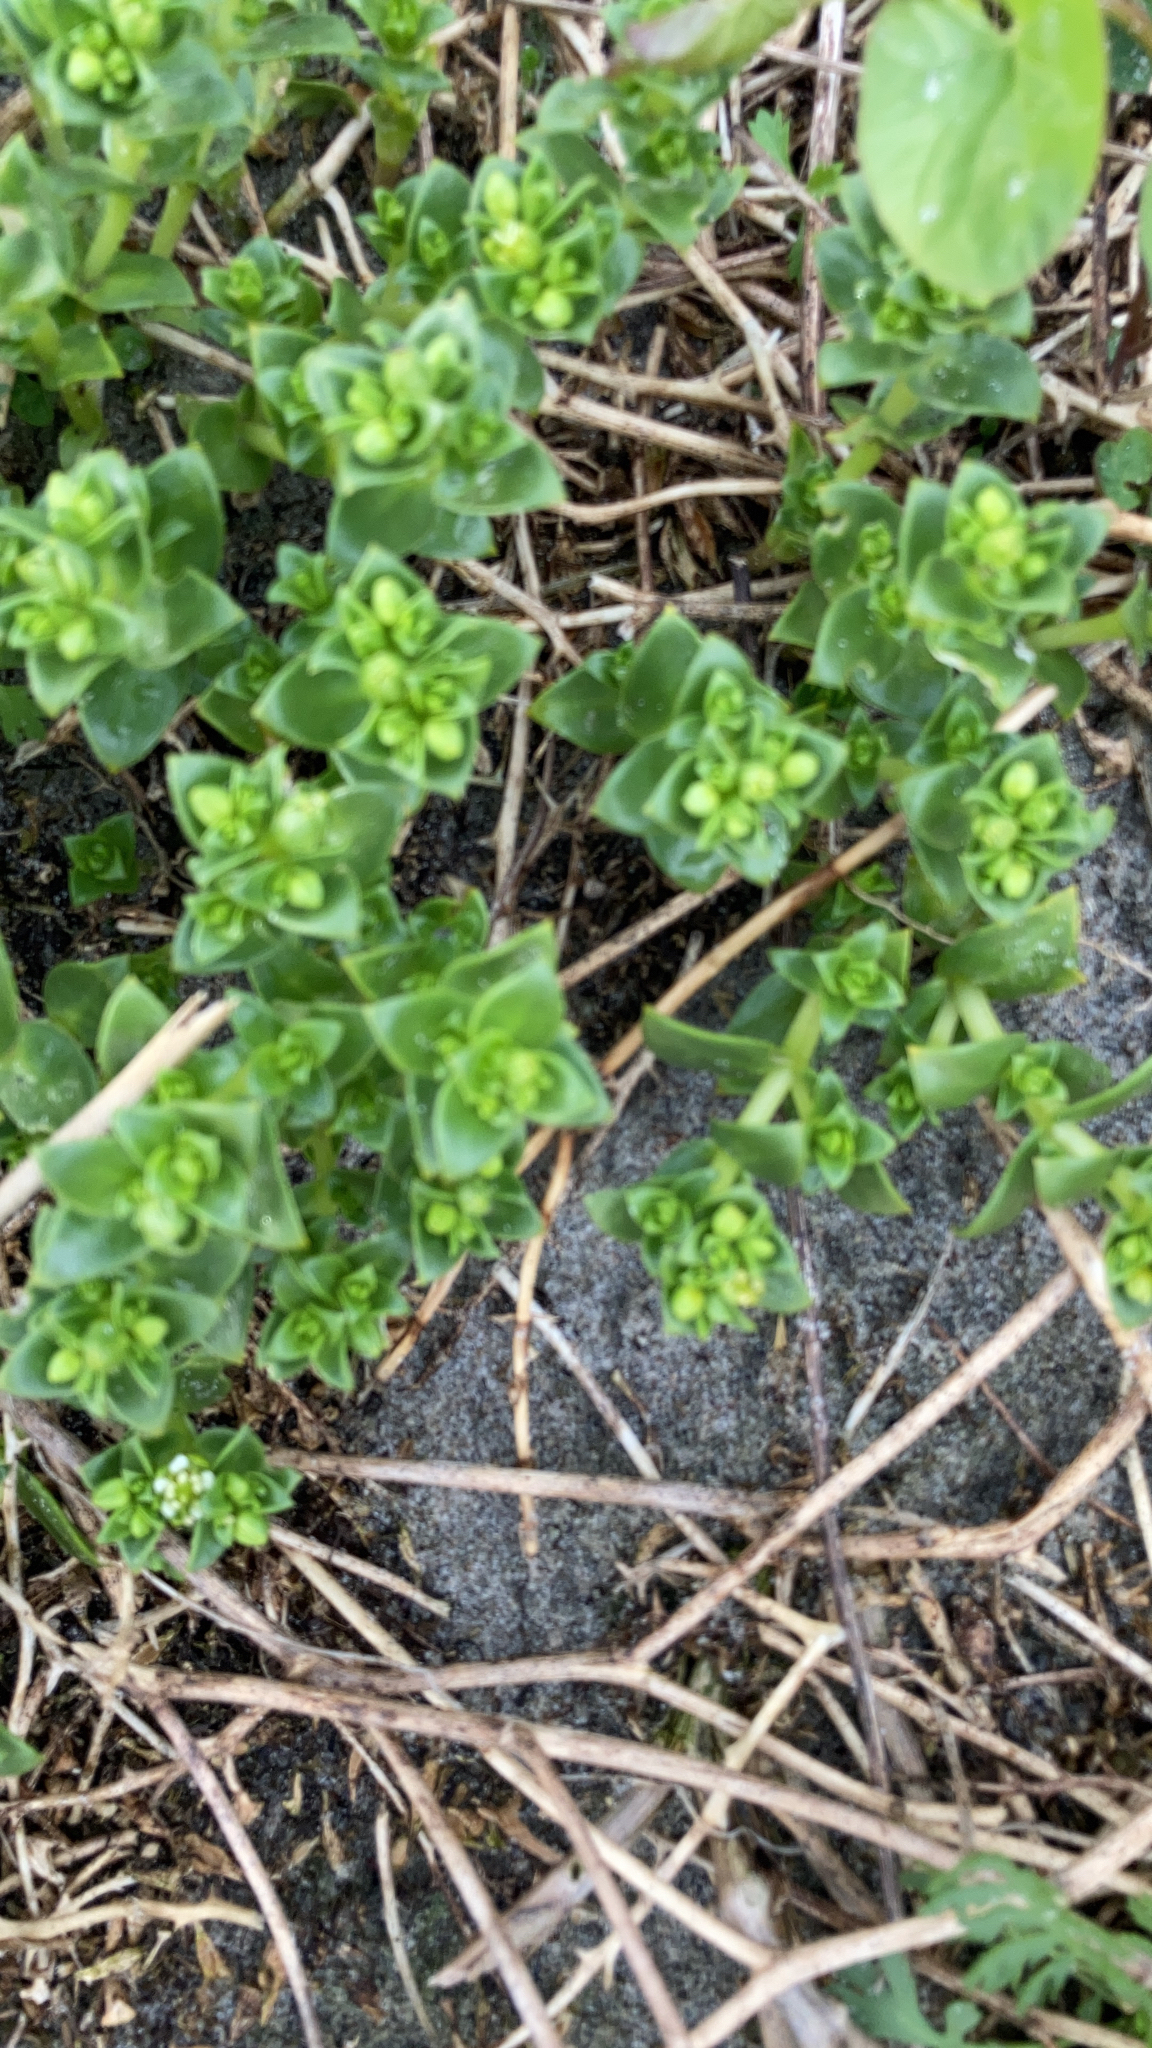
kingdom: Plantae
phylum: Tracheophyta
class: Magnoliopsida
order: Caryophyllales
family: Caryophyllaceae
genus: Honckenya
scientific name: Honckenya peploides
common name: Sea sandwort
